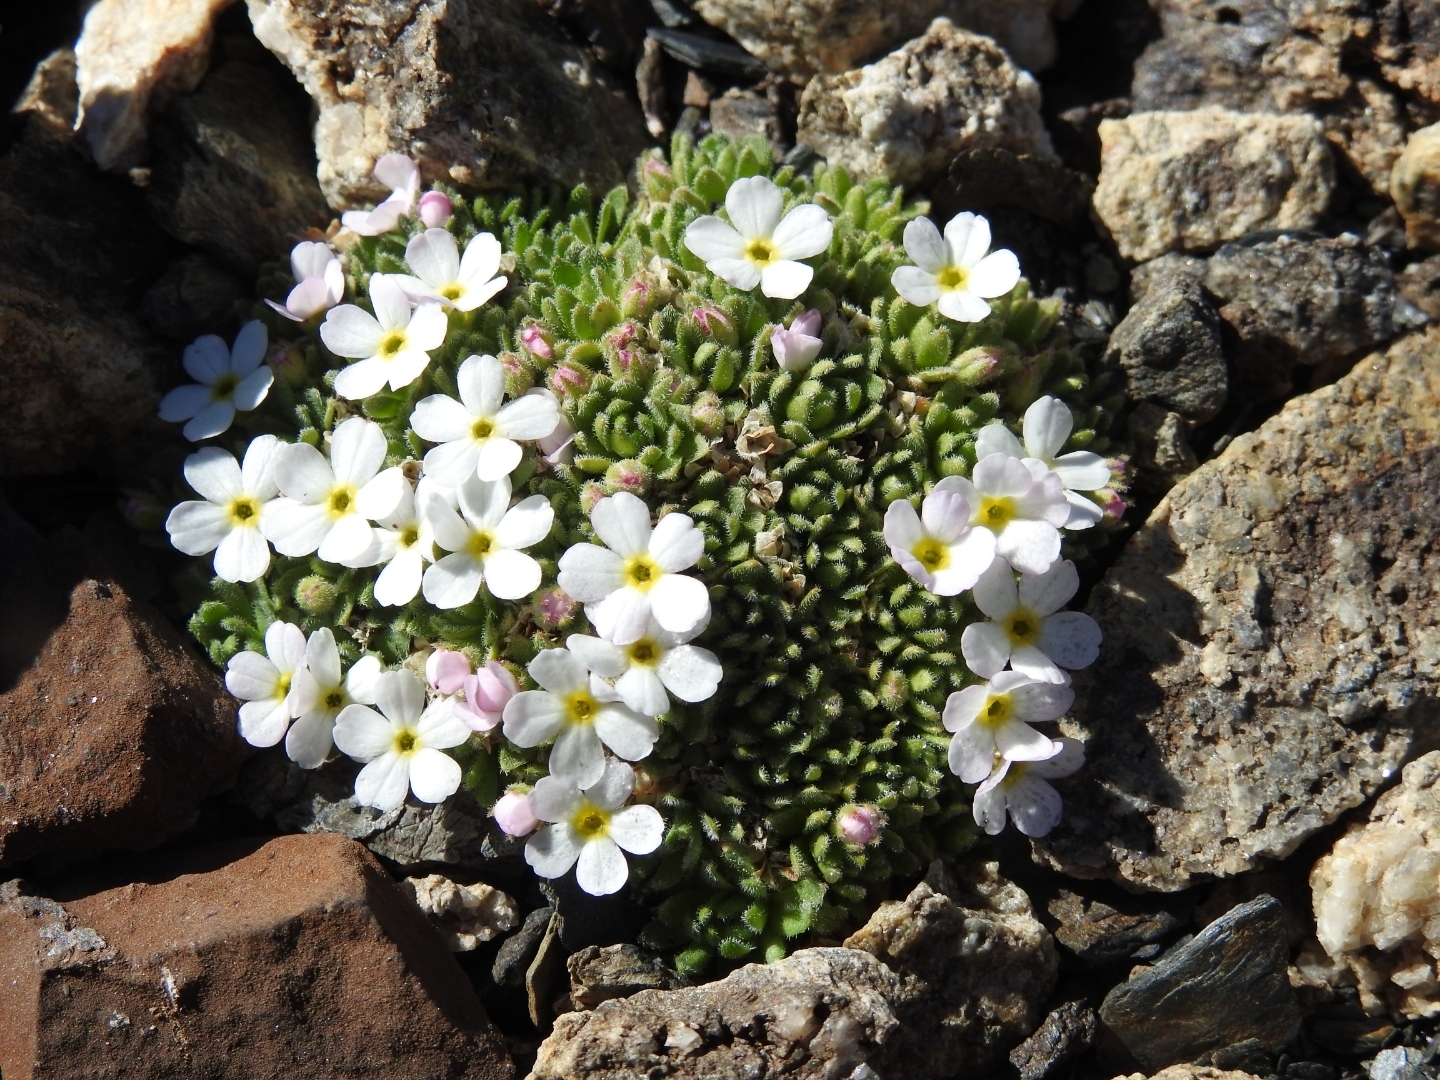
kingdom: Plantae
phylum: Tracheophyta
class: Magnoliopsida
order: Ericales
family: Primulaceae
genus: Androsace
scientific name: Androsace delphinensis
